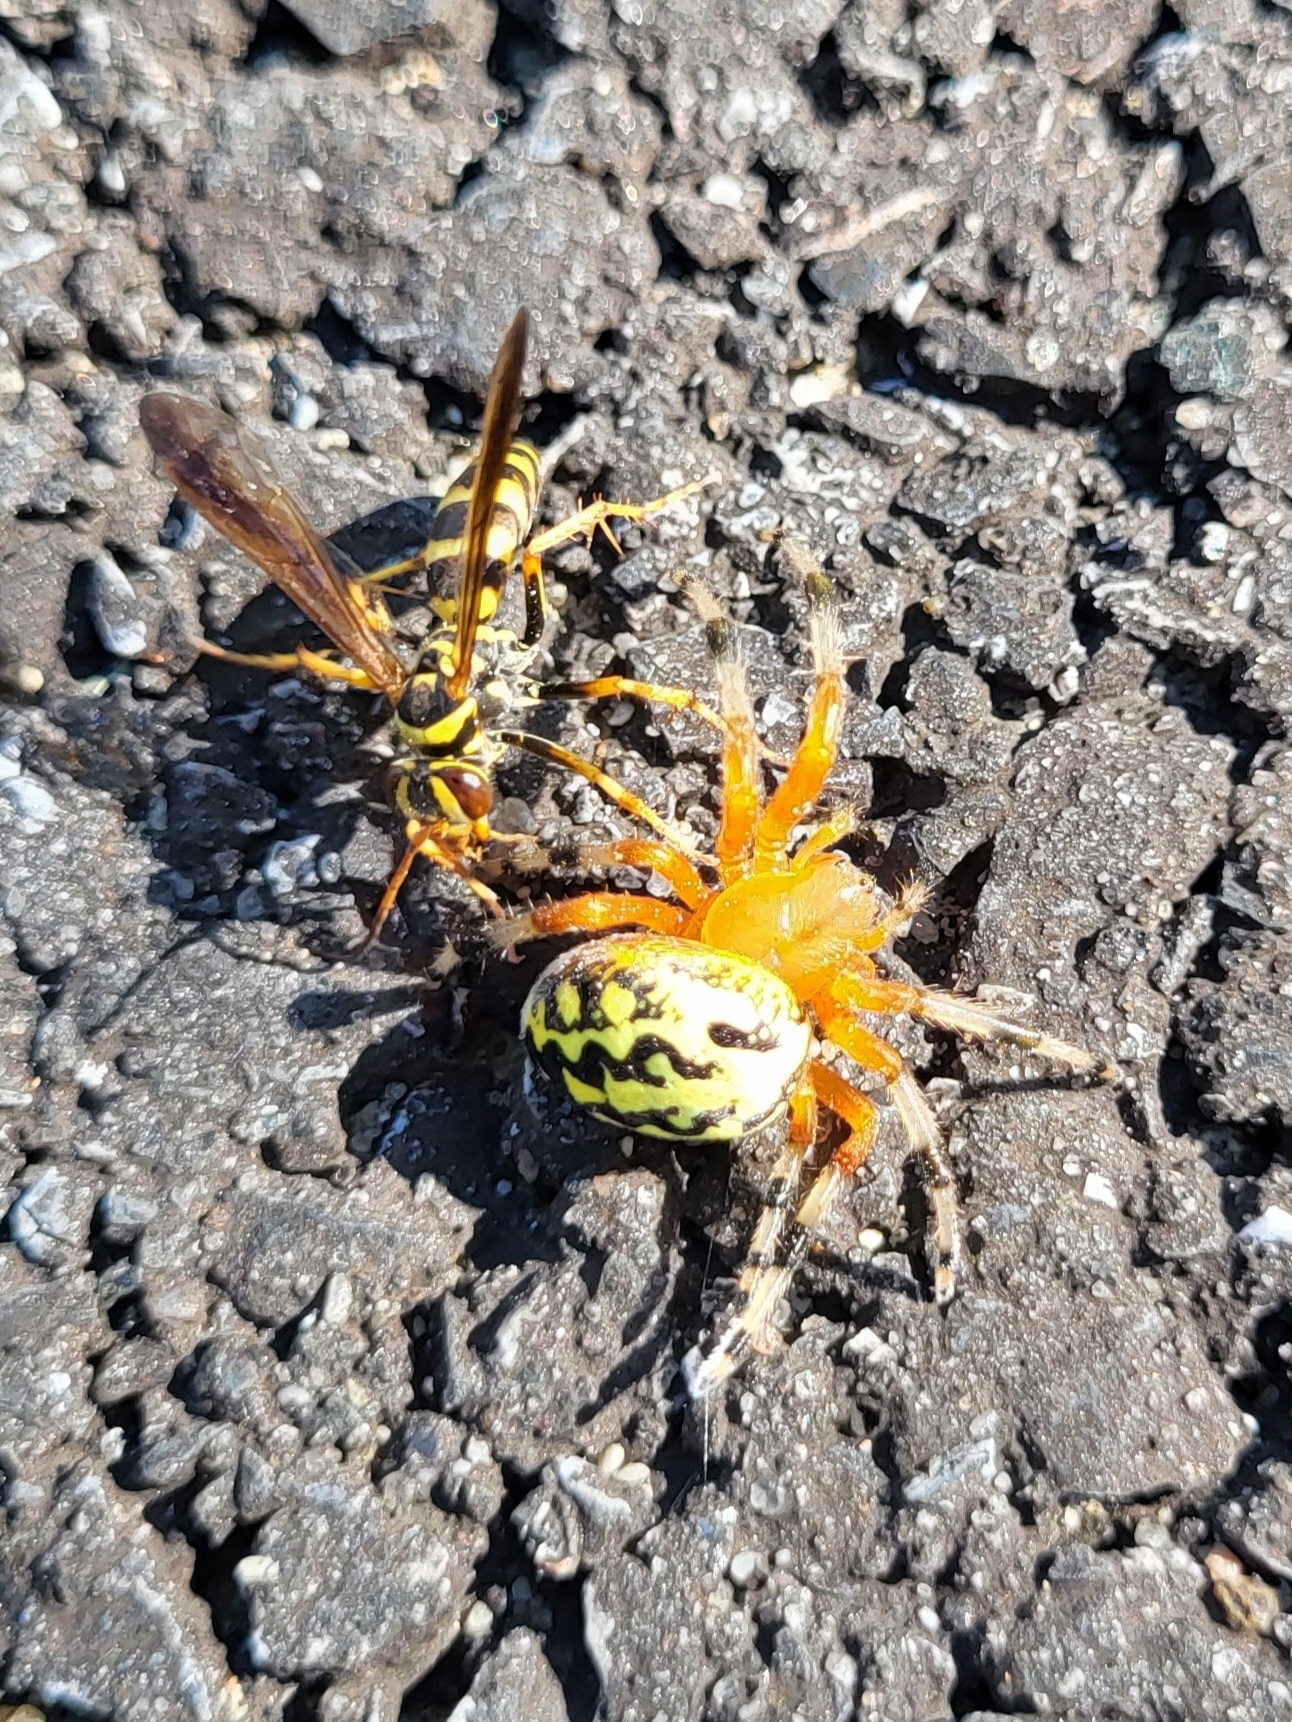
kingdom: Animalia
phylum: Arthropoda
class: Arachnida
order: Araneae
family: Araneidae
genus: Araneus
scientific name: Araneus marmoreus
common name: Marbled orbweaver
